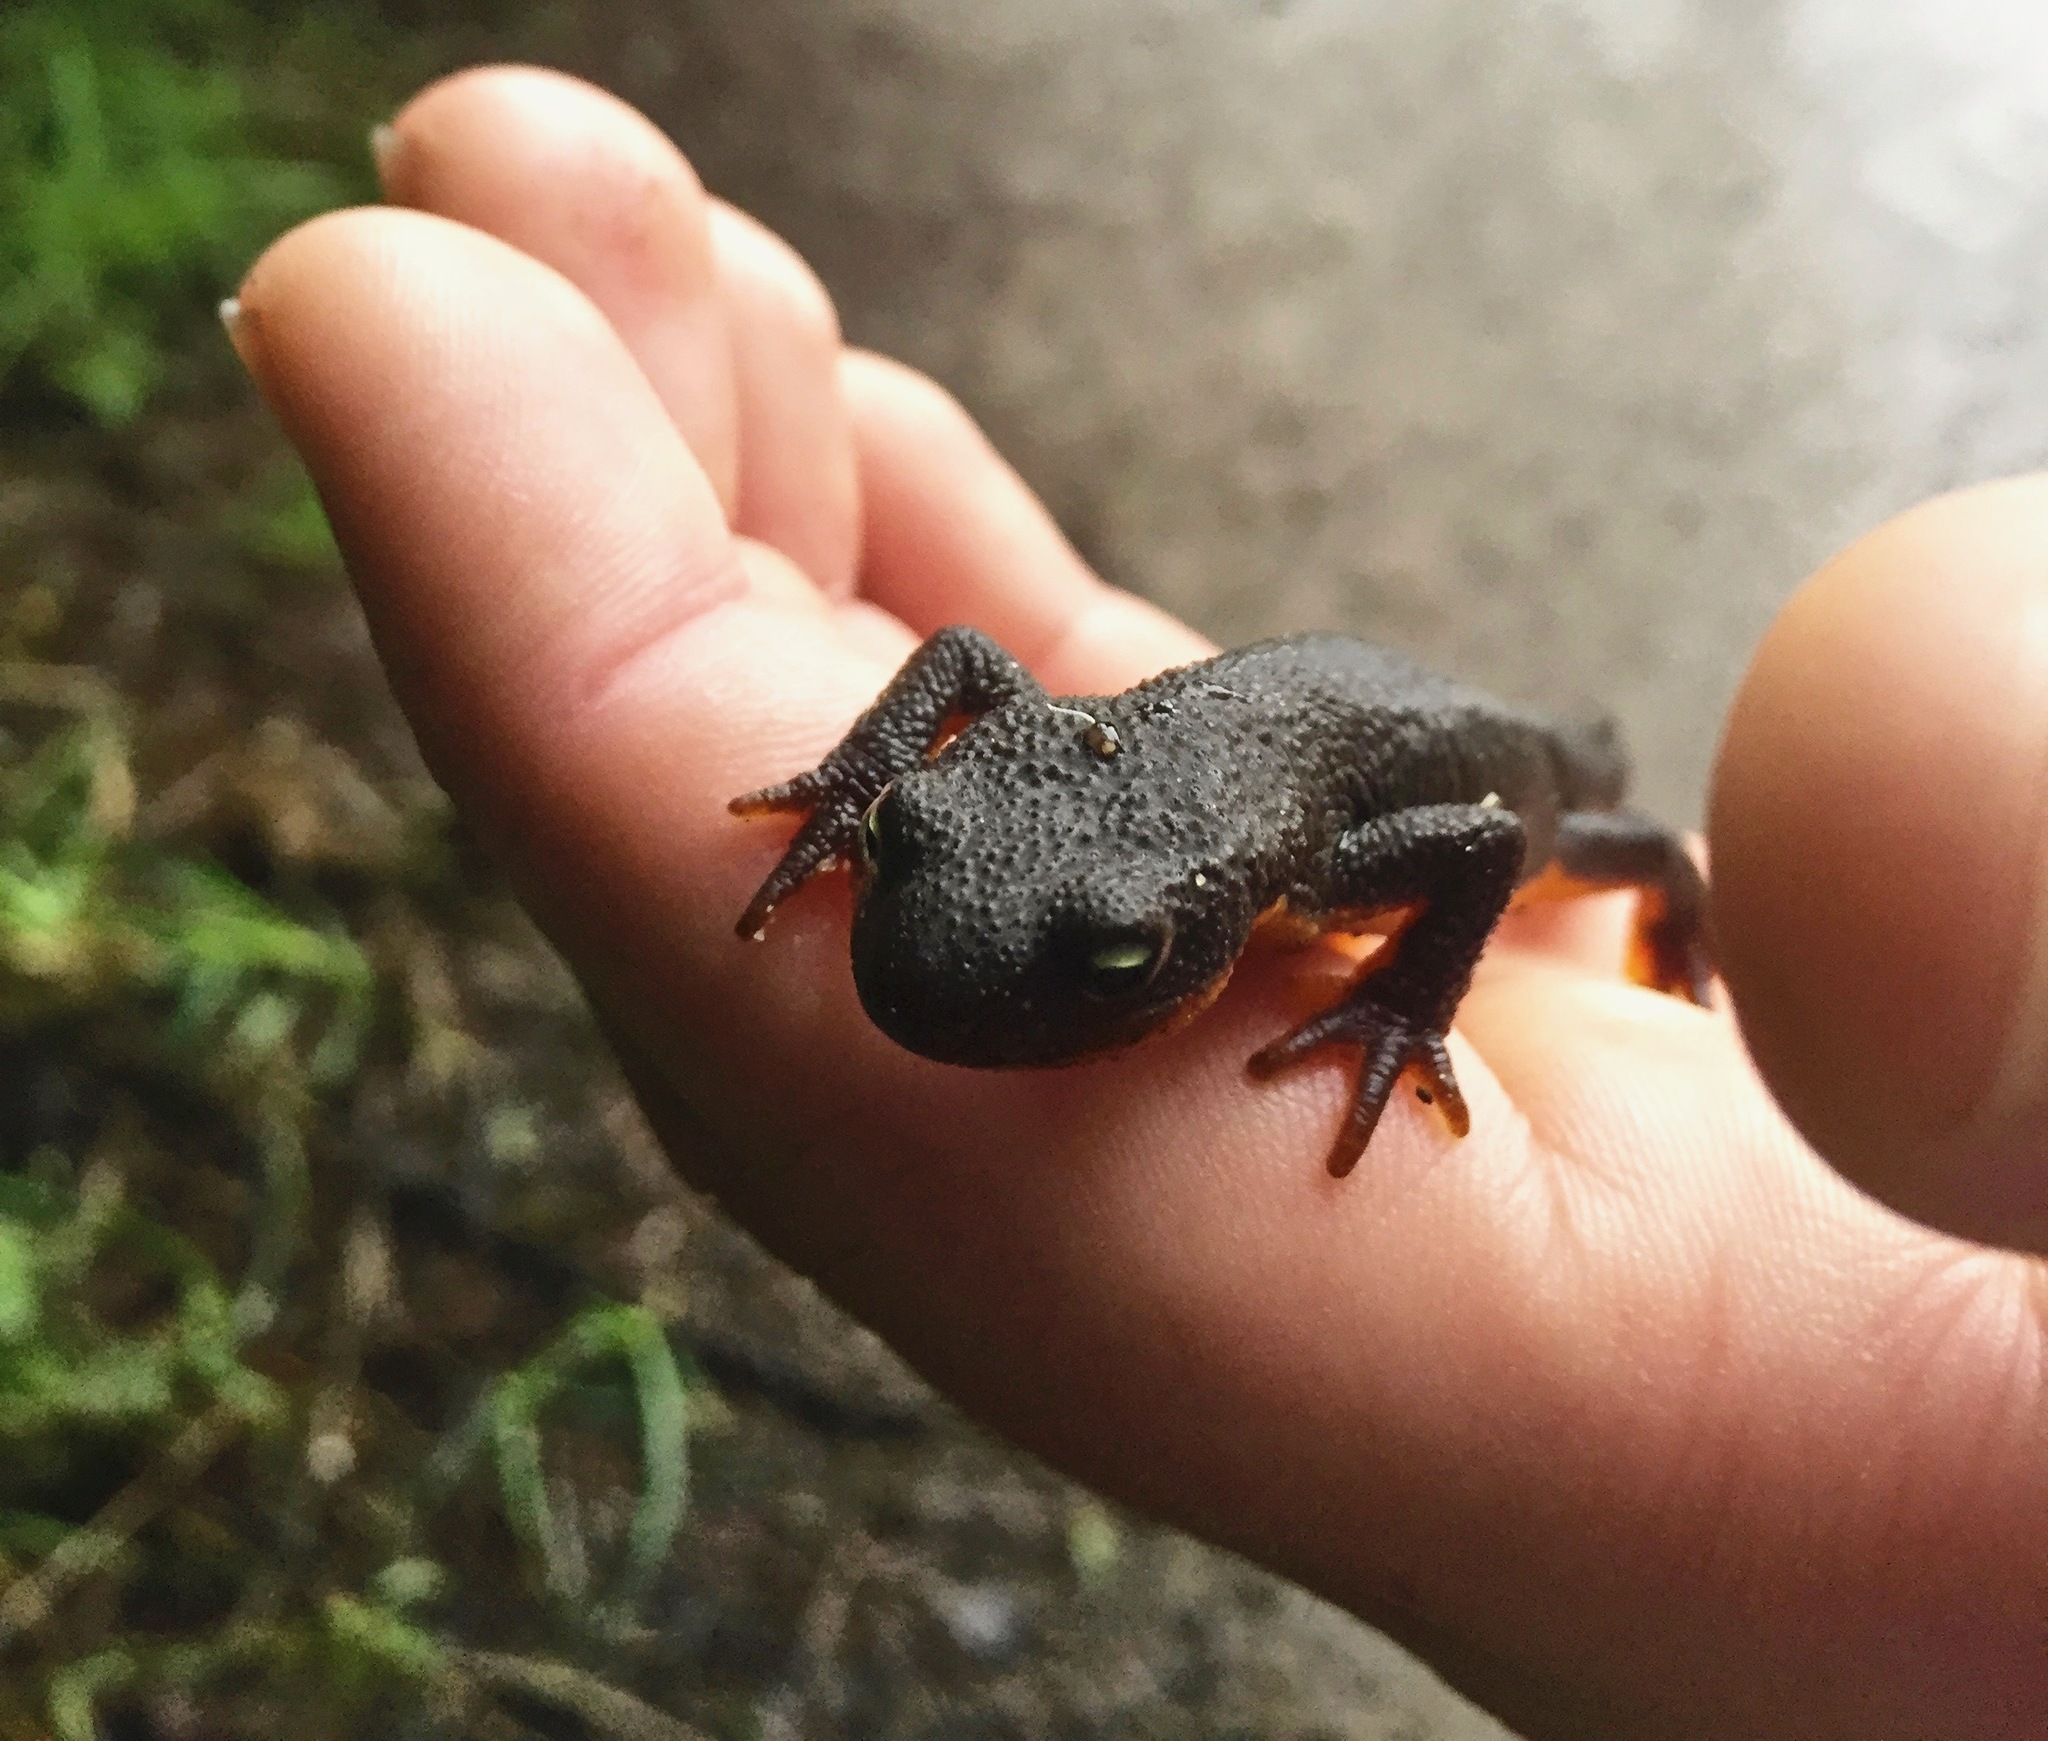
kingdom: Animalia
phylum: Chordata
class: Amphibia
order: Caudata
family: Salamandridae
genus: Taricha
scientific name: Taricha granulosa
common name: Roughskin newt
